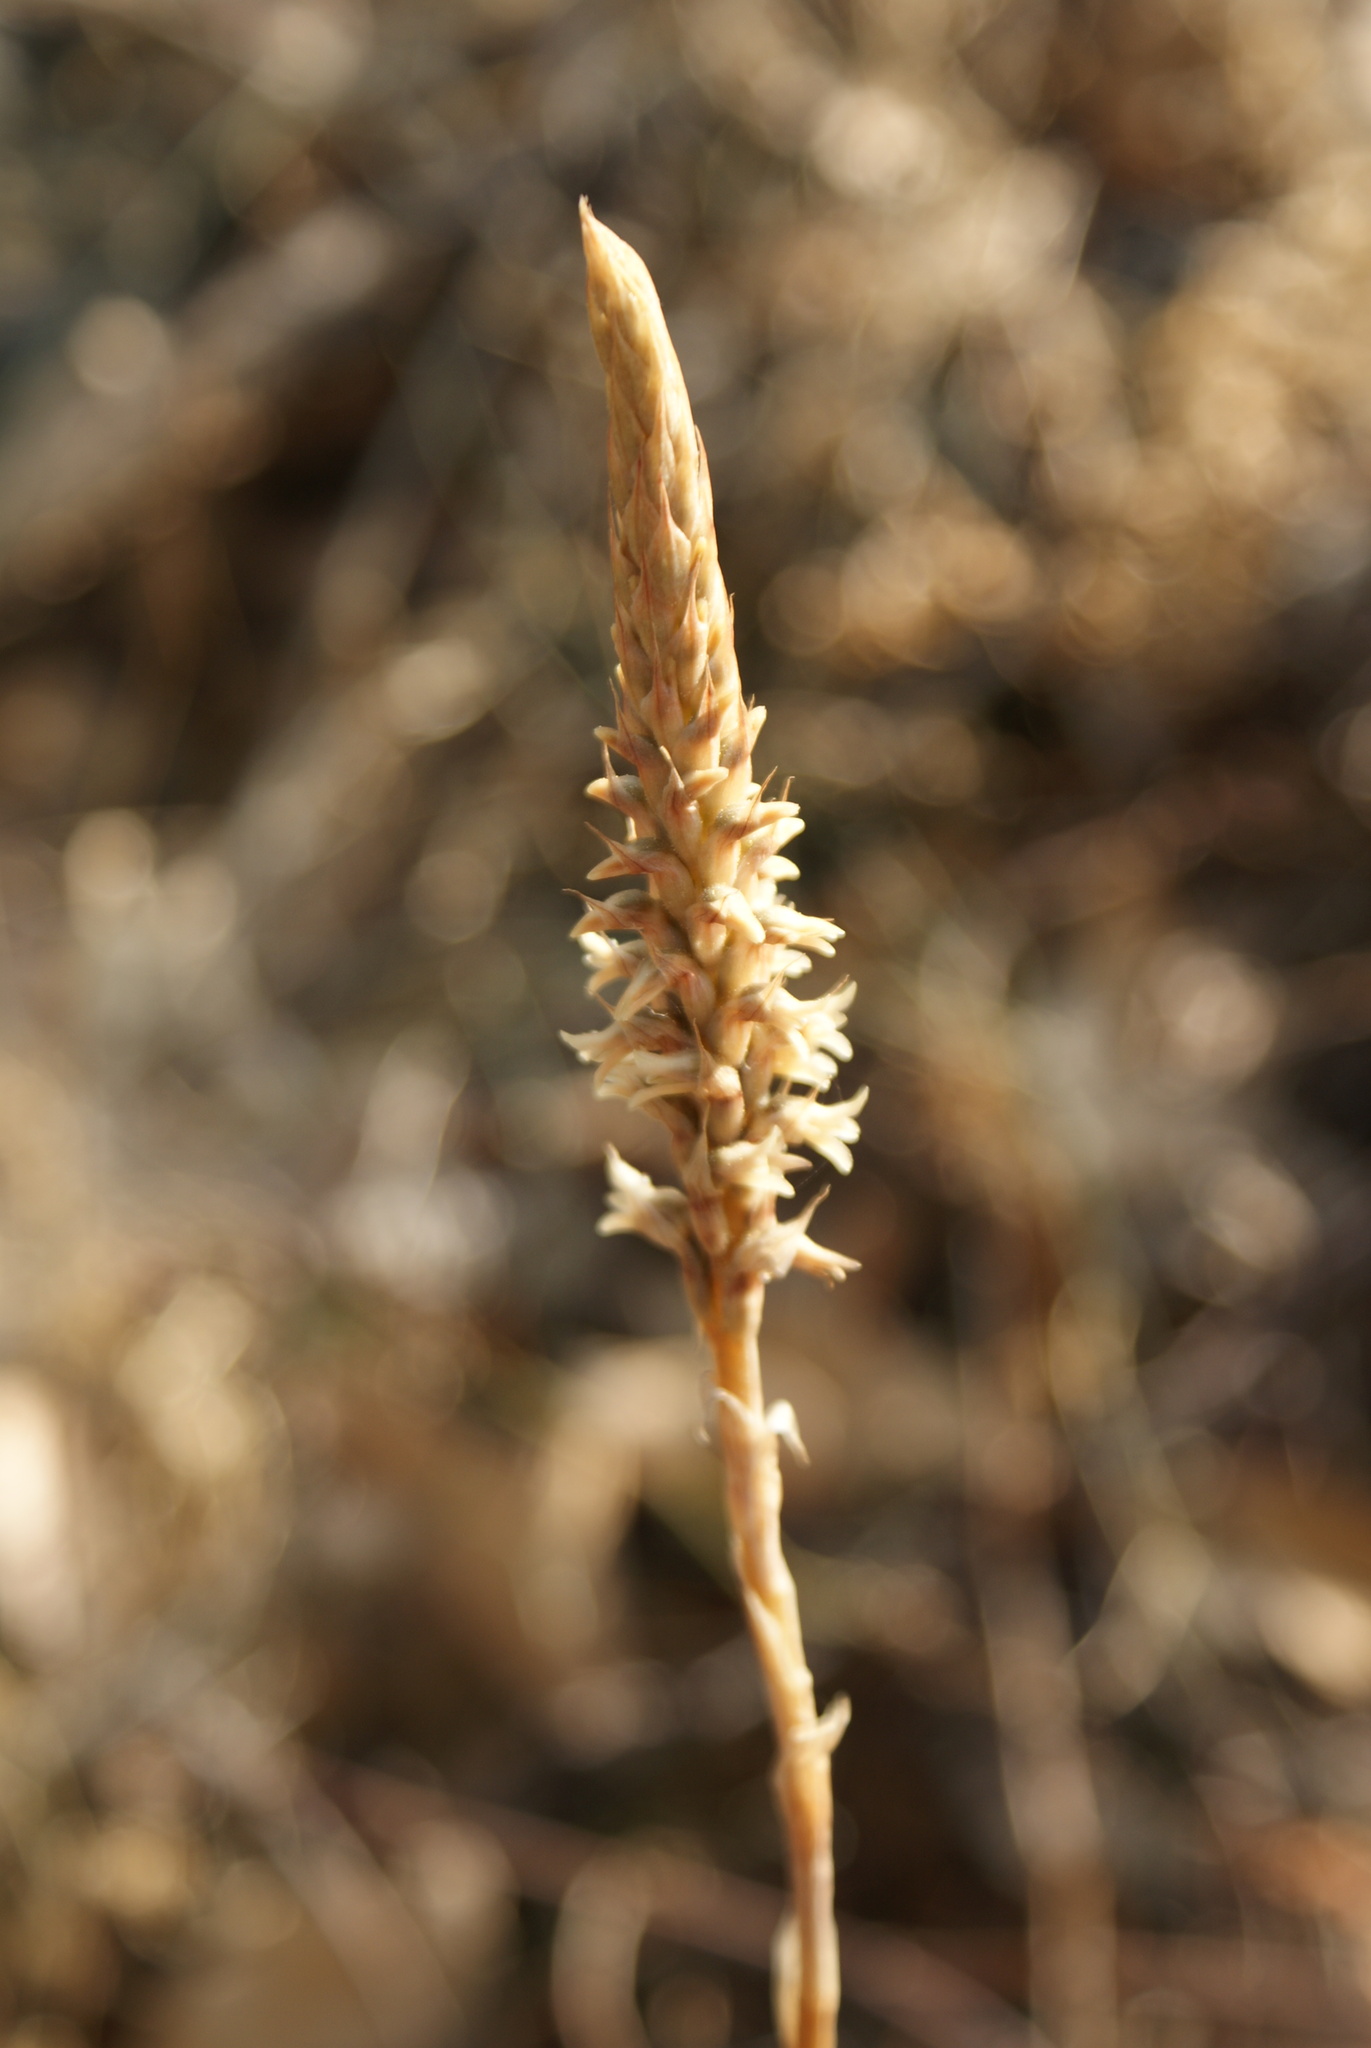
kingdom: Plantae
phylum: Tracheophyta
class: Liliopsida
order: Asparagales
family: Orchidaceae
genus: Aulosepalum
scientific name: Aulosepalum pyramidale
